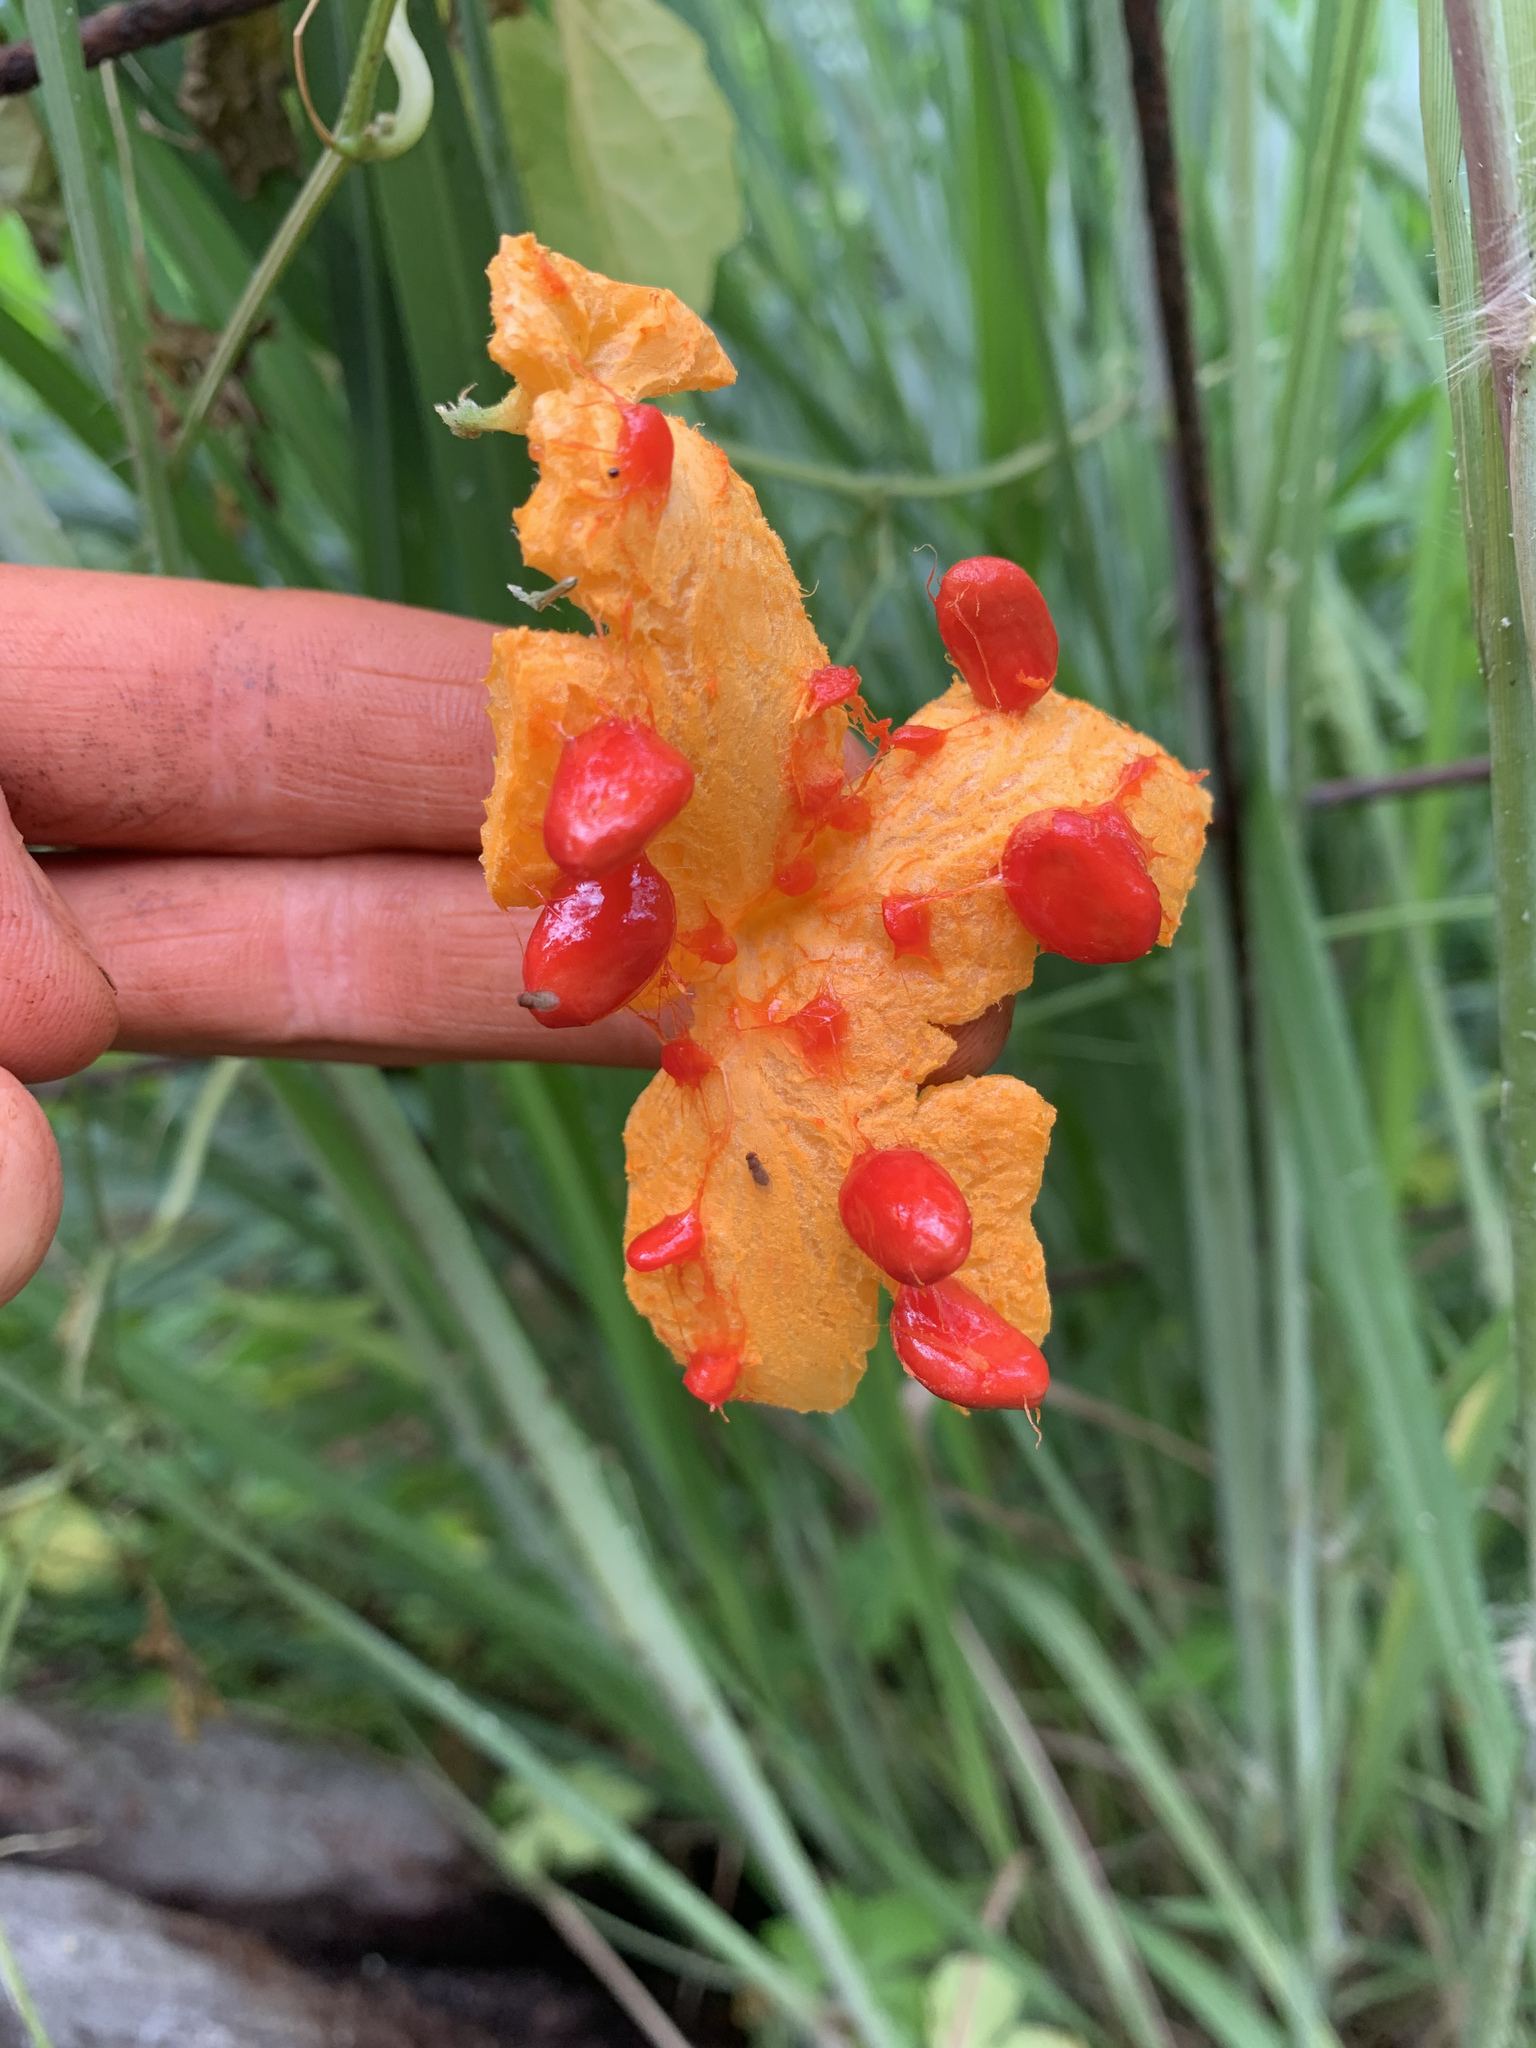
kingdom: Plantae
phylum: Tracheophyta
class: Magnoliopsida
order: Cucurbitales
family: Cucurbitaceae
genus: Momordica
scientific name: Momordica charantia
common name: Balsampear
